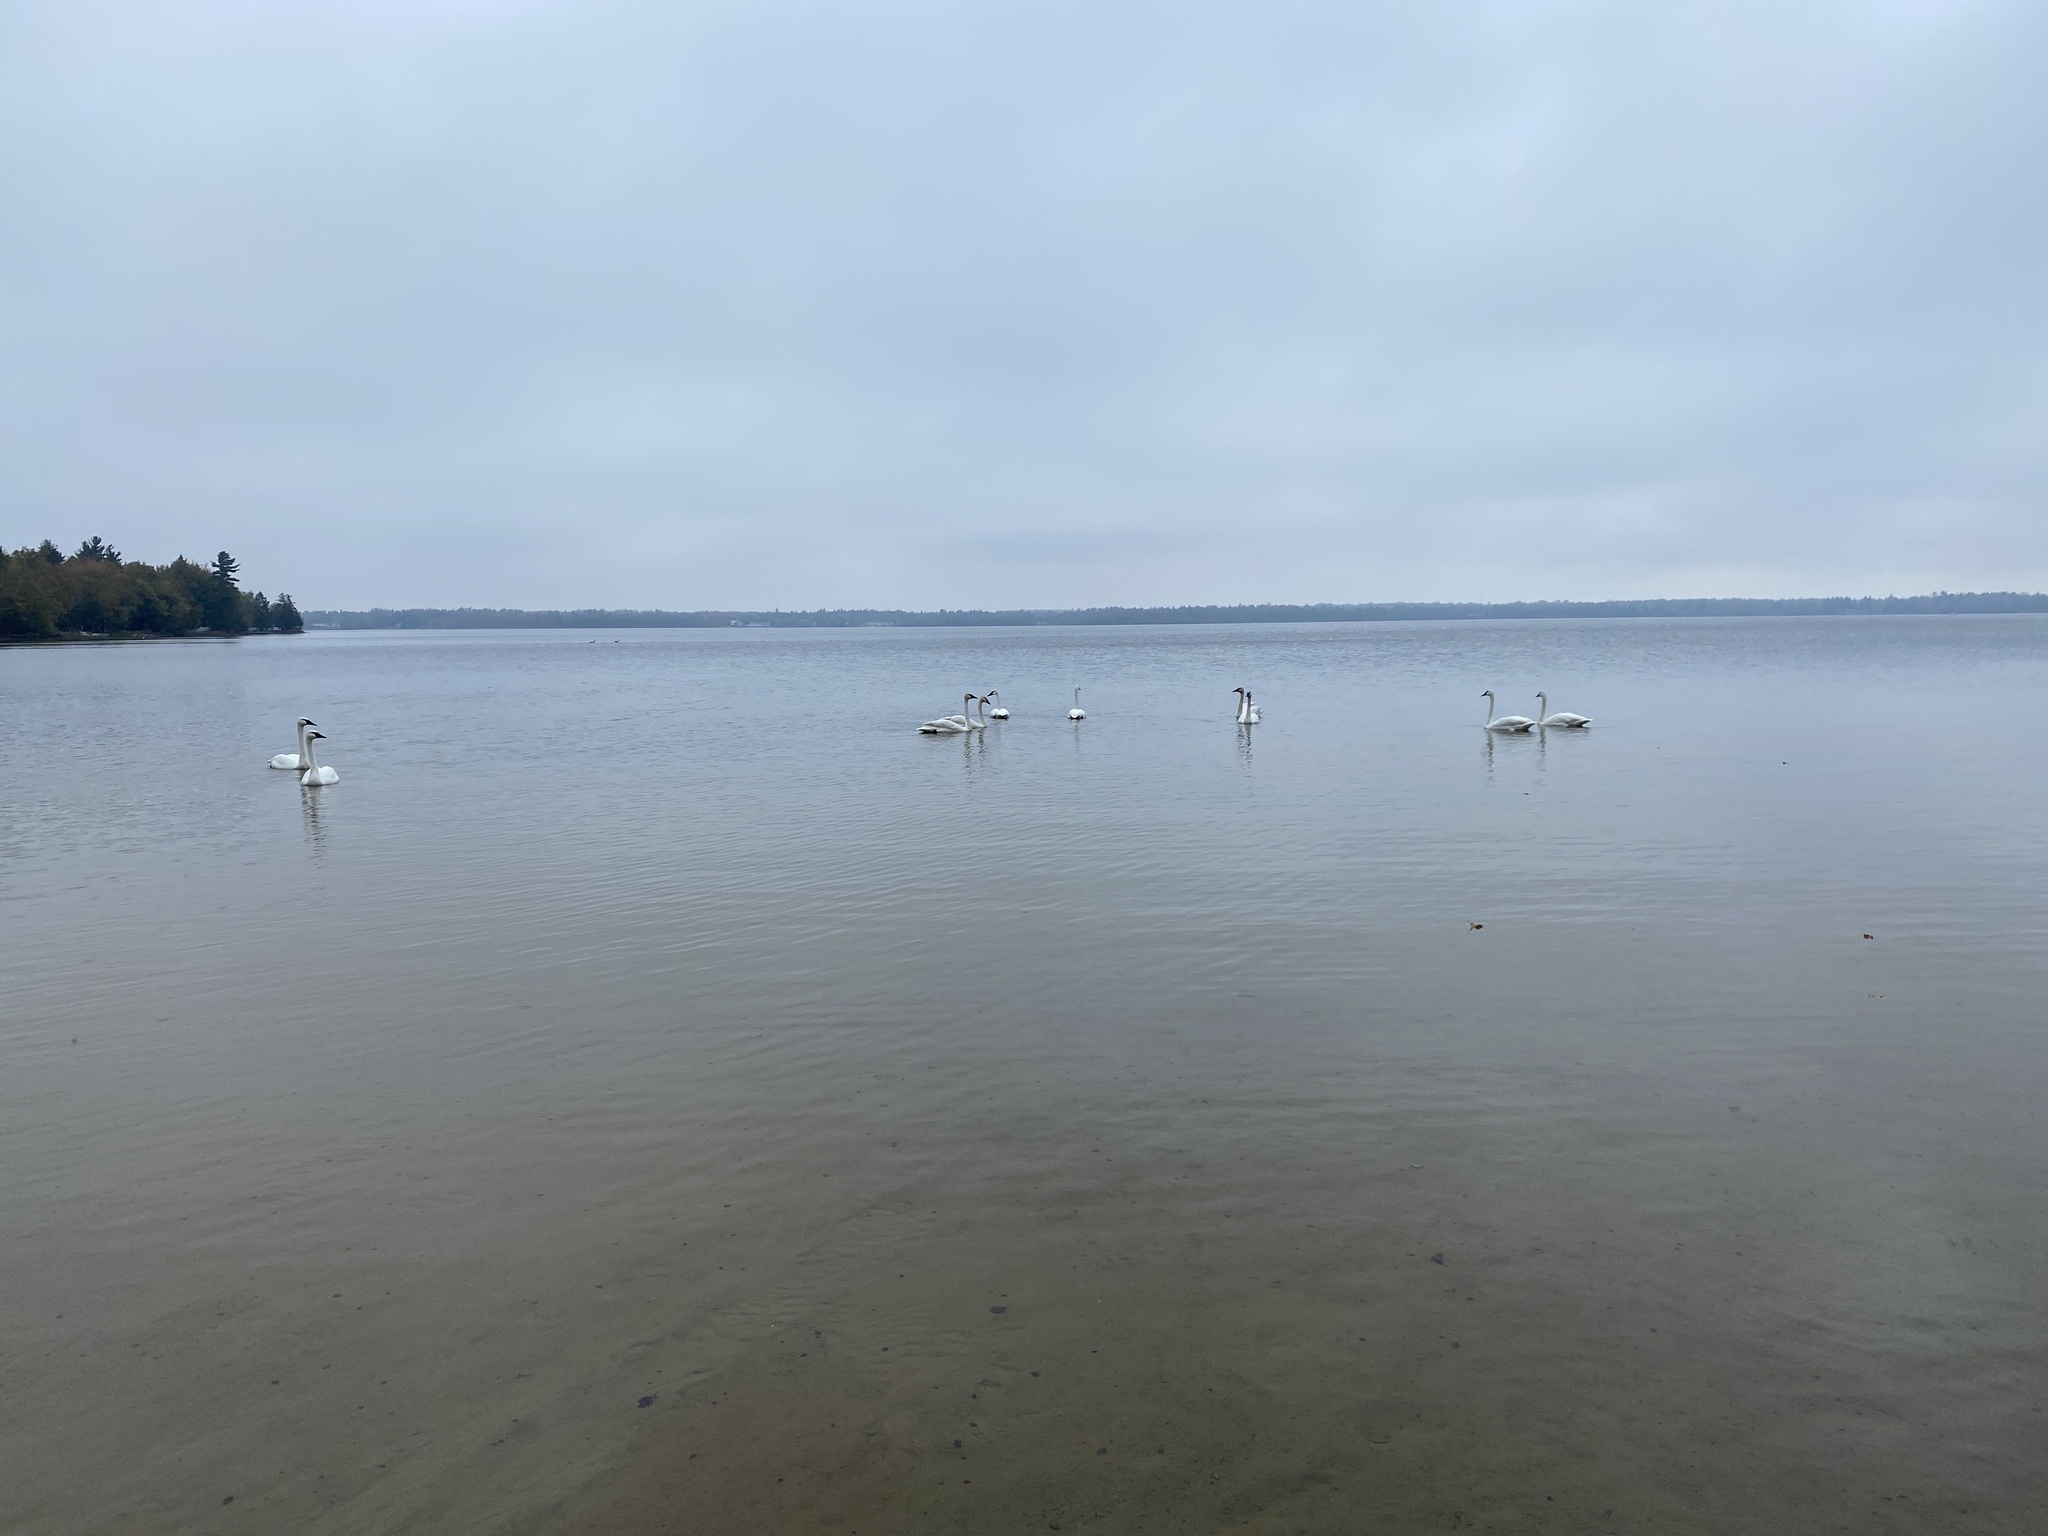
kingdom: Animalia
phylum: Chordata
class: Aves
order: Anseriformes
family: Anatidae
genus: Cygnus
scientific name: Cygnus buccinator
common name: Trumpeter swan
